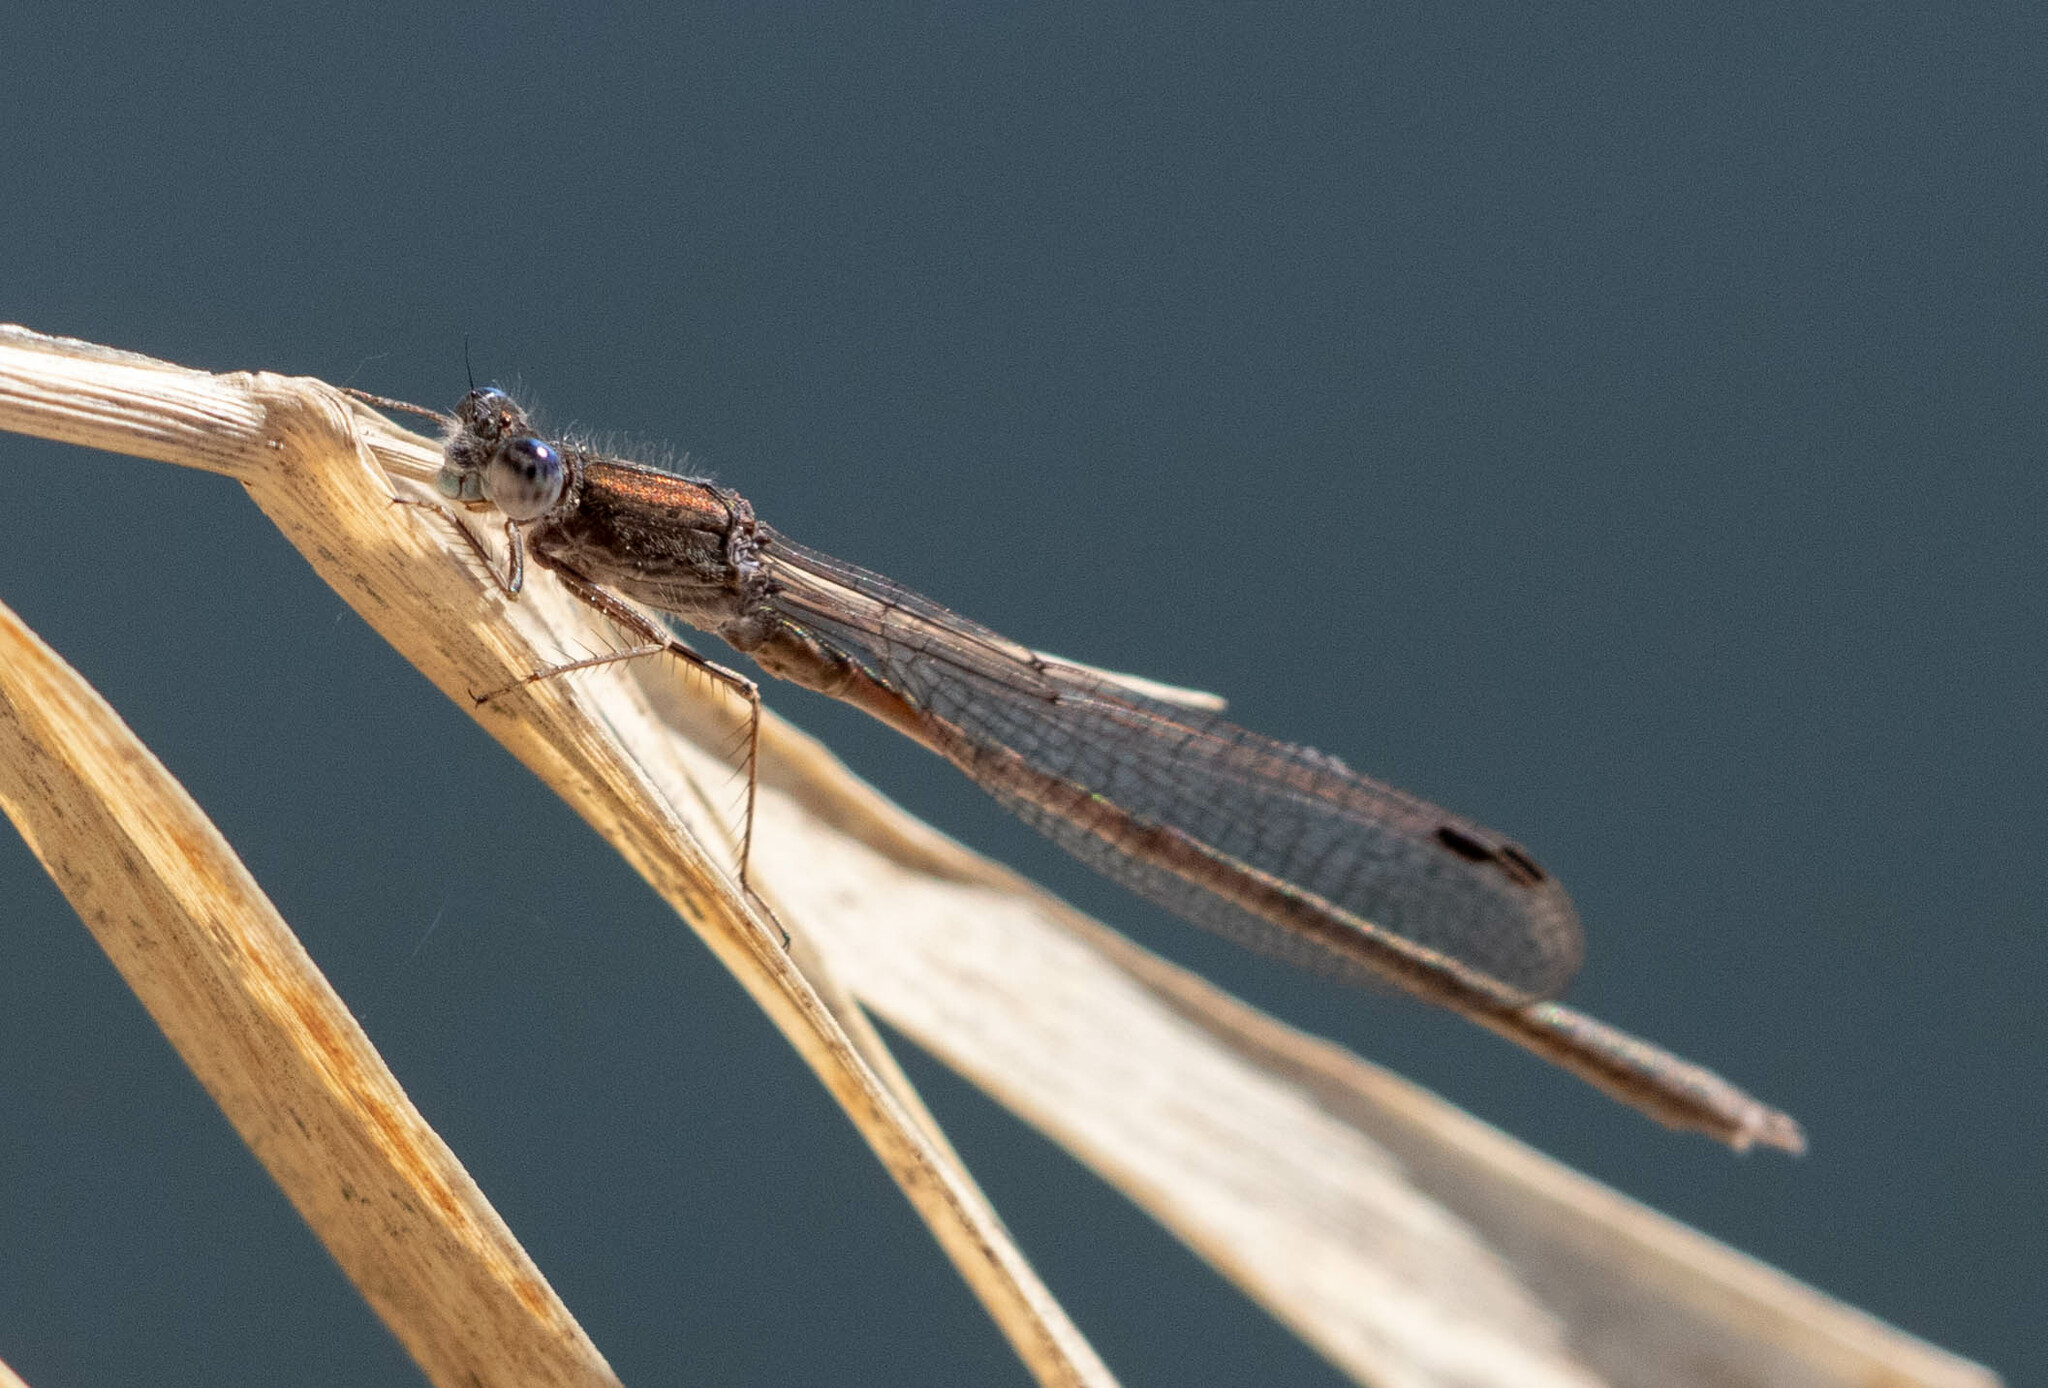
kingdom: Animalia
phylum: Arthropoda
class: Insecta
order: Odonata
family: Lestidae
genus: Sympecma
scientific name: Sympecma paedisca
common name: Siberian winter damsel
